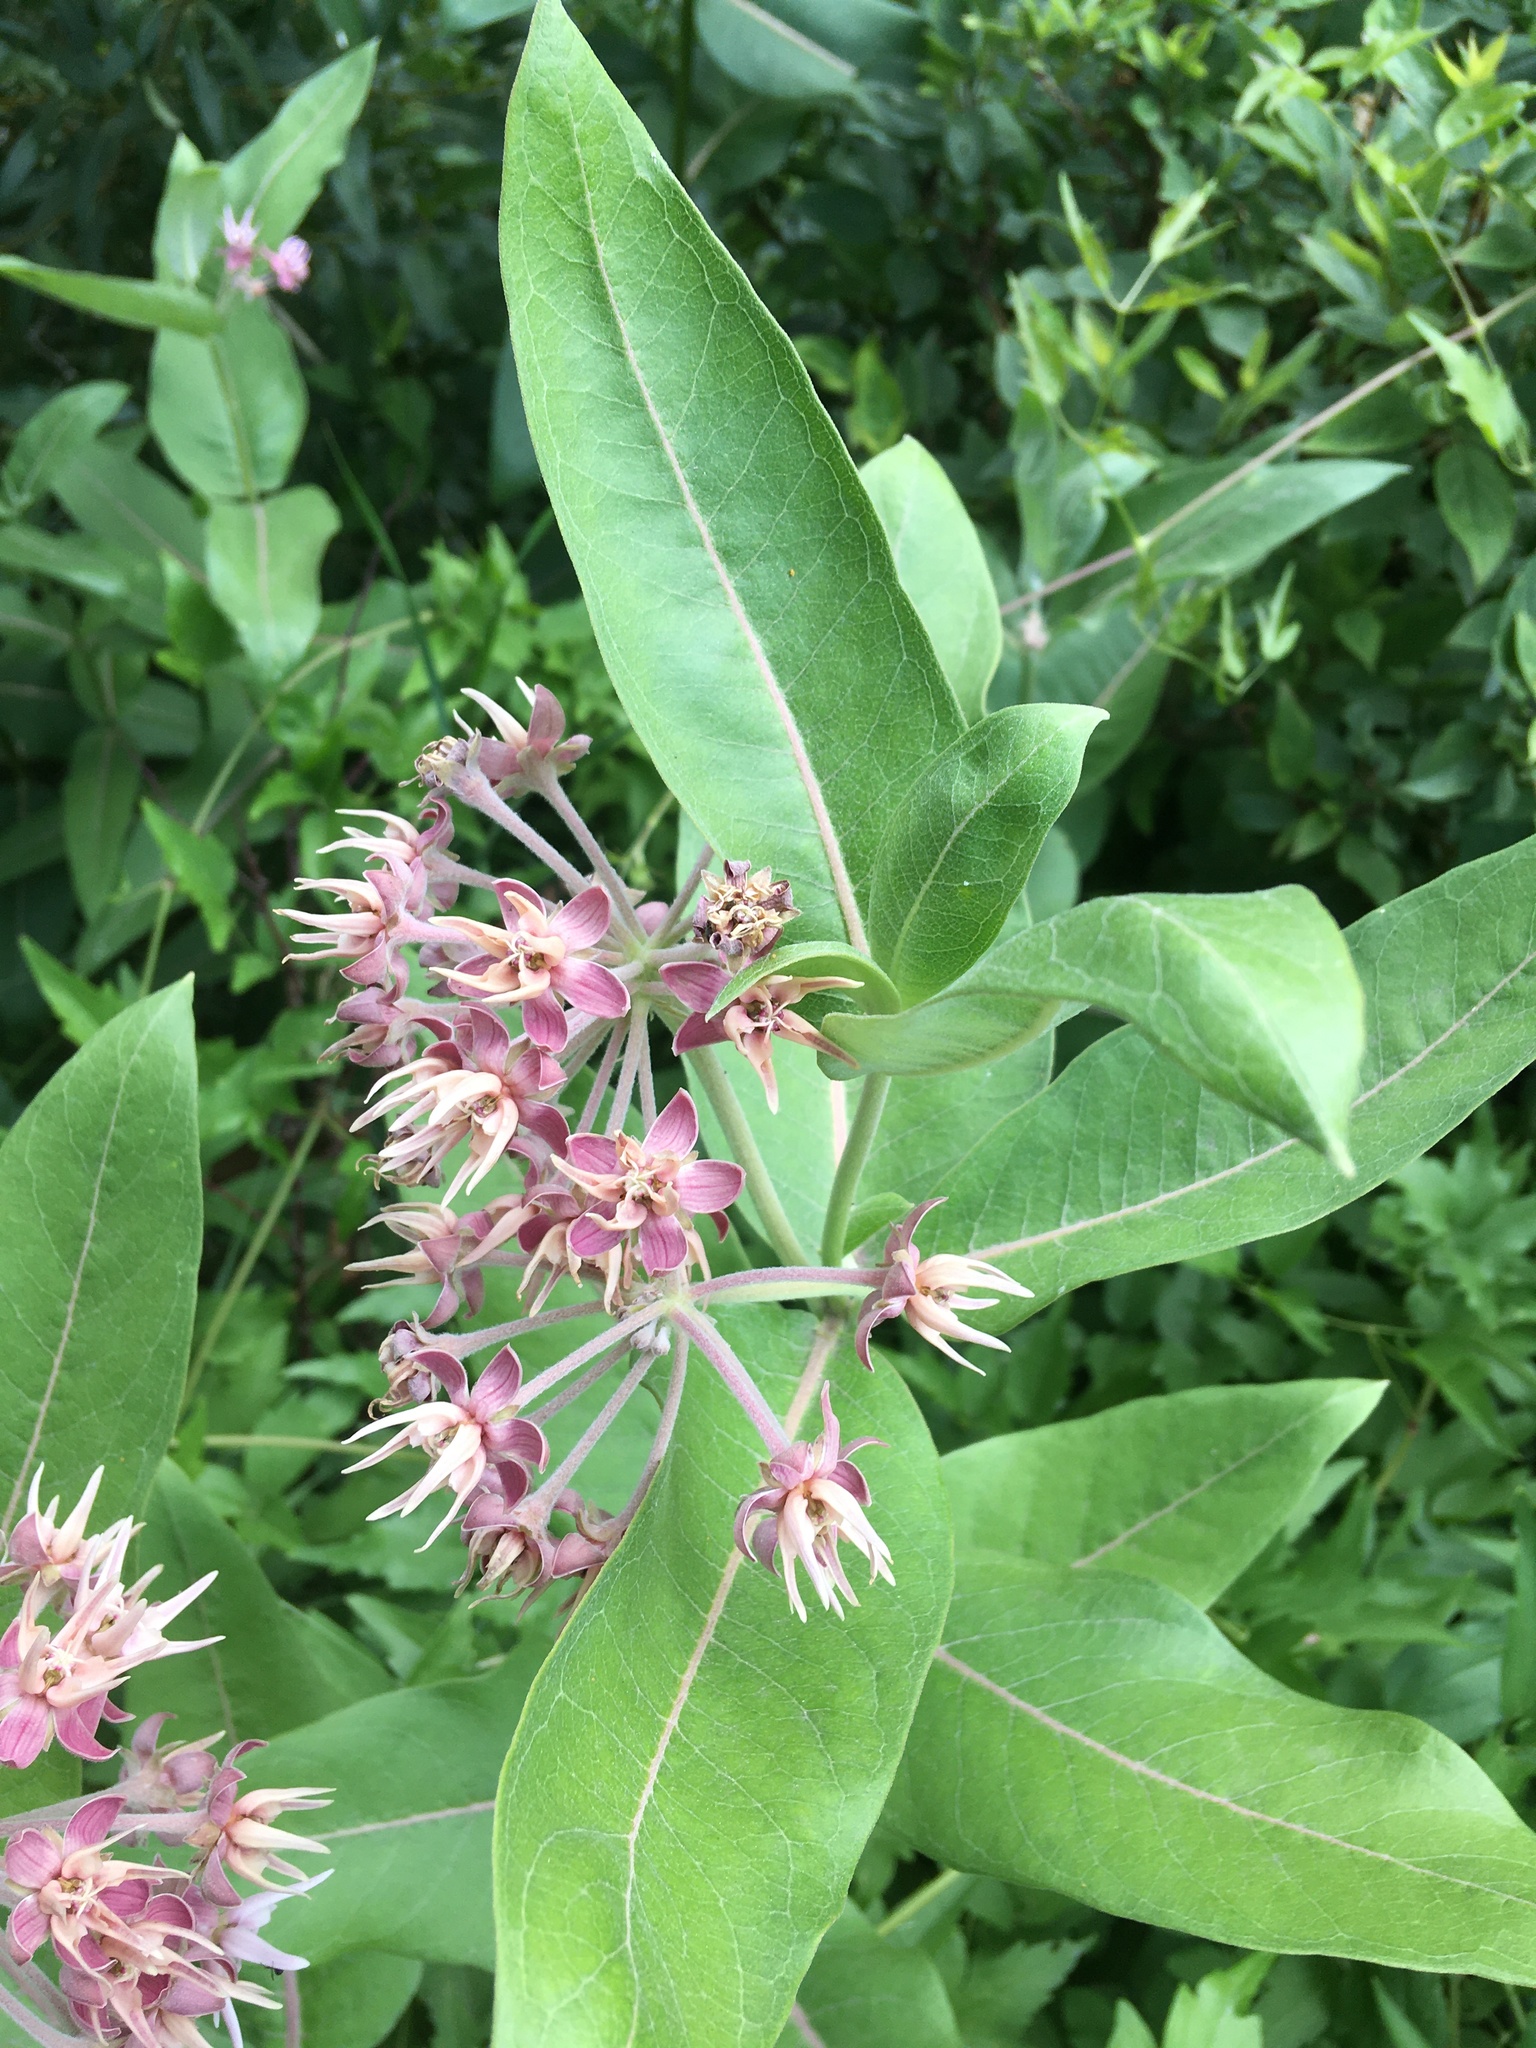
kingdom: Plantae
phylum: Tracheophyta
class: Magnoliopsida
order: Gentianales
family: Apocynaceae
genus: Asclepias
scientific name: Asclepias speciosa
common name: Showy milkweed
